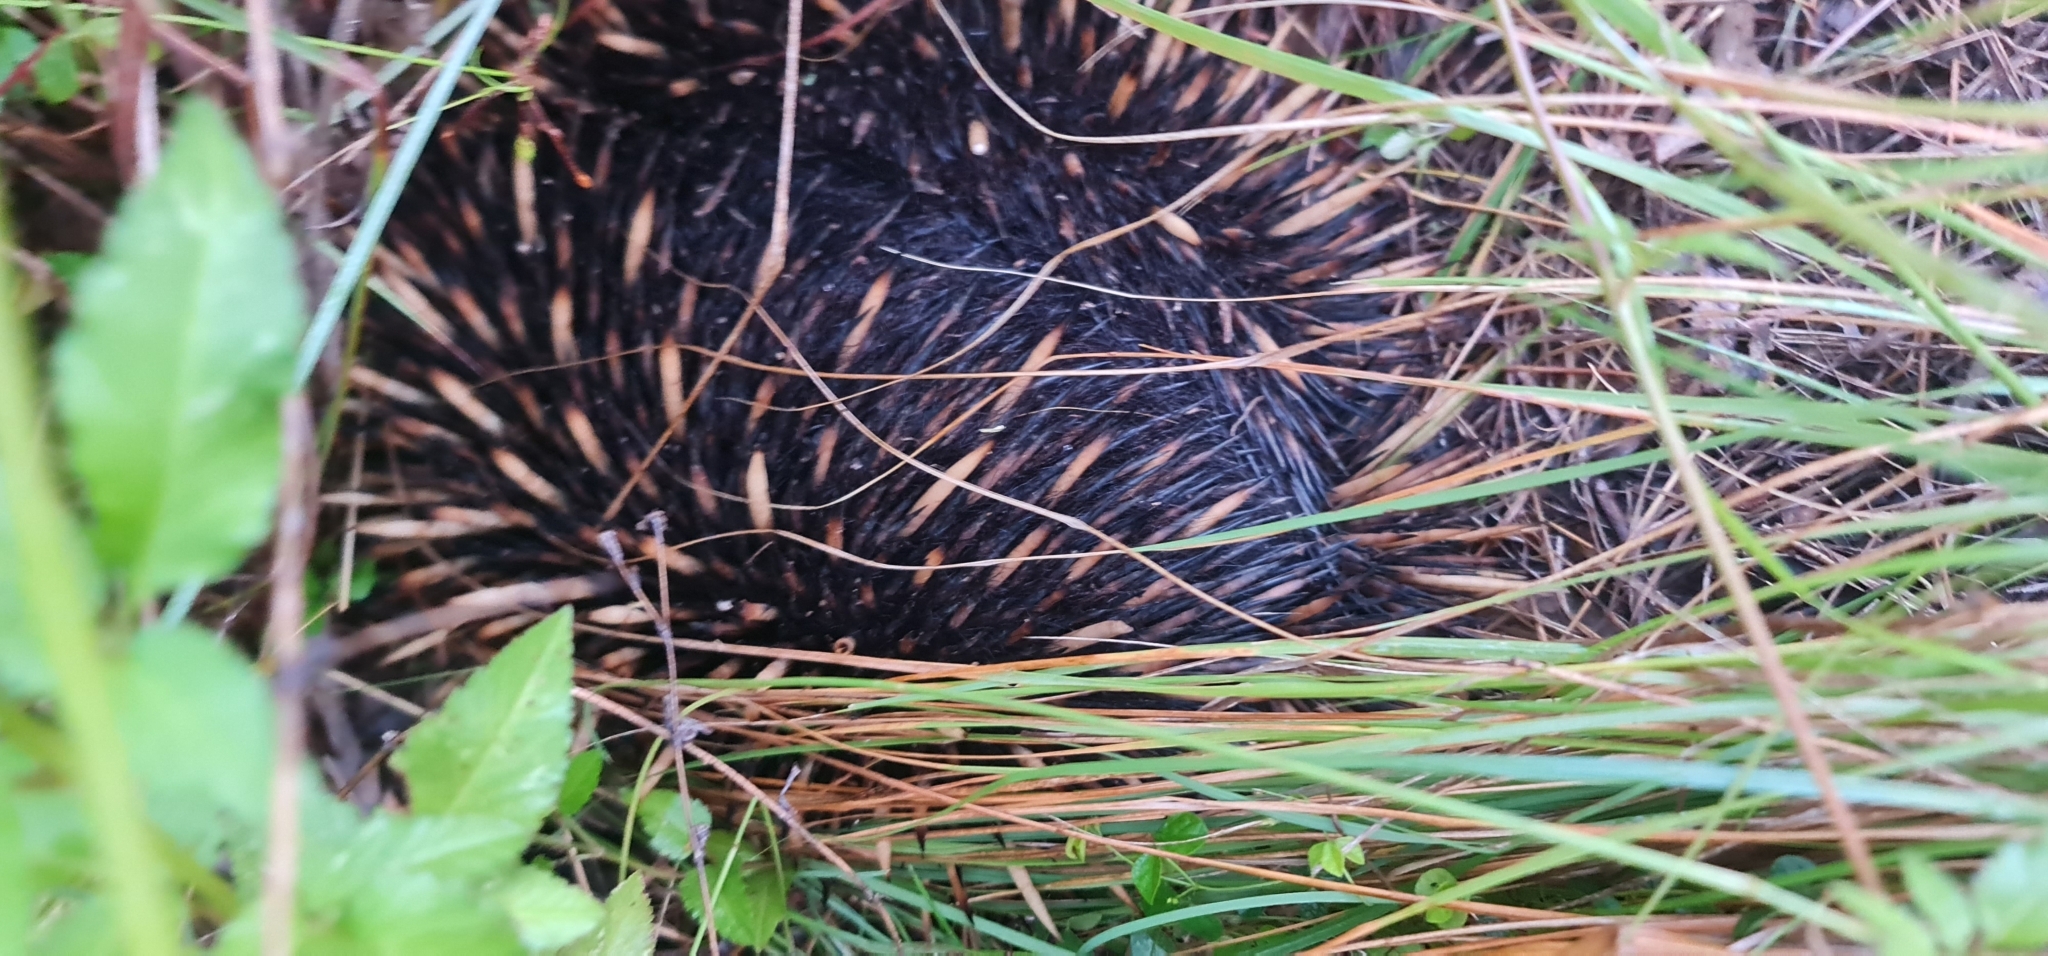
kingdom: Animalia
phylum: Chordata
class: Mammalia
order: Monotremata
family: Tachyglossidae
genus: Tachyglossus
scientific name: Tachyglossus aculeatus
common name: Short-beaked echidna
